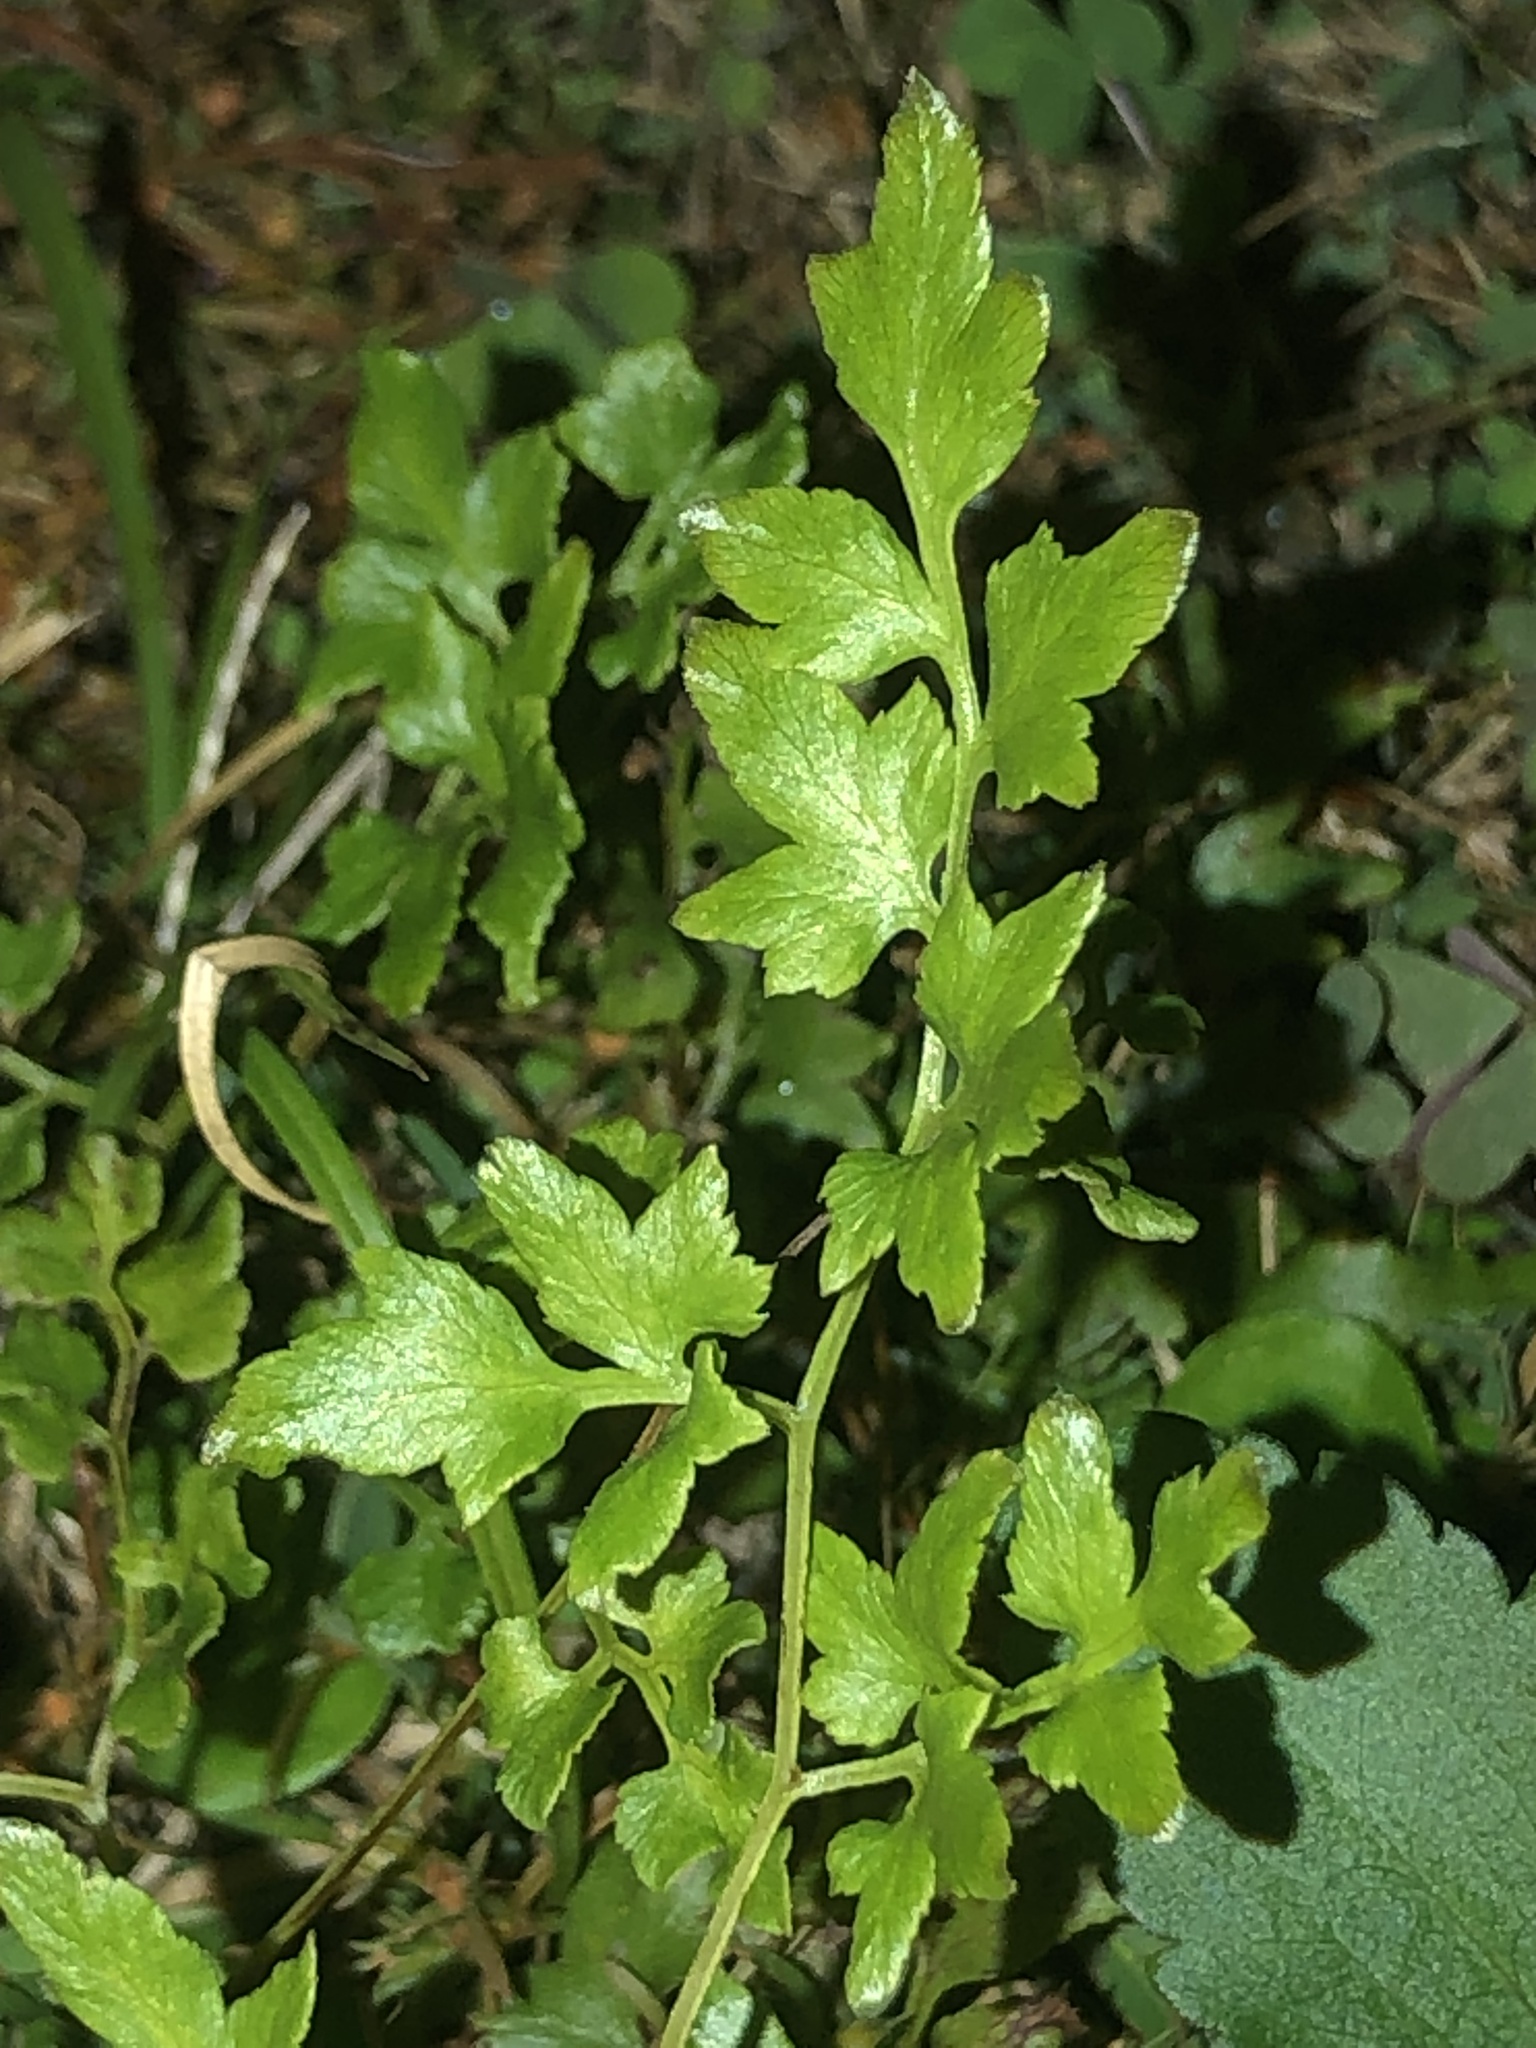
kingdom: Plantae
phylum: Tracheophyta
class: Polypodiopsida
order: Schizaeales
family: Lygodiaceae
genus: Lygodium
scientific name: Lygodium japonicum
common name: Japanese climbing fern
